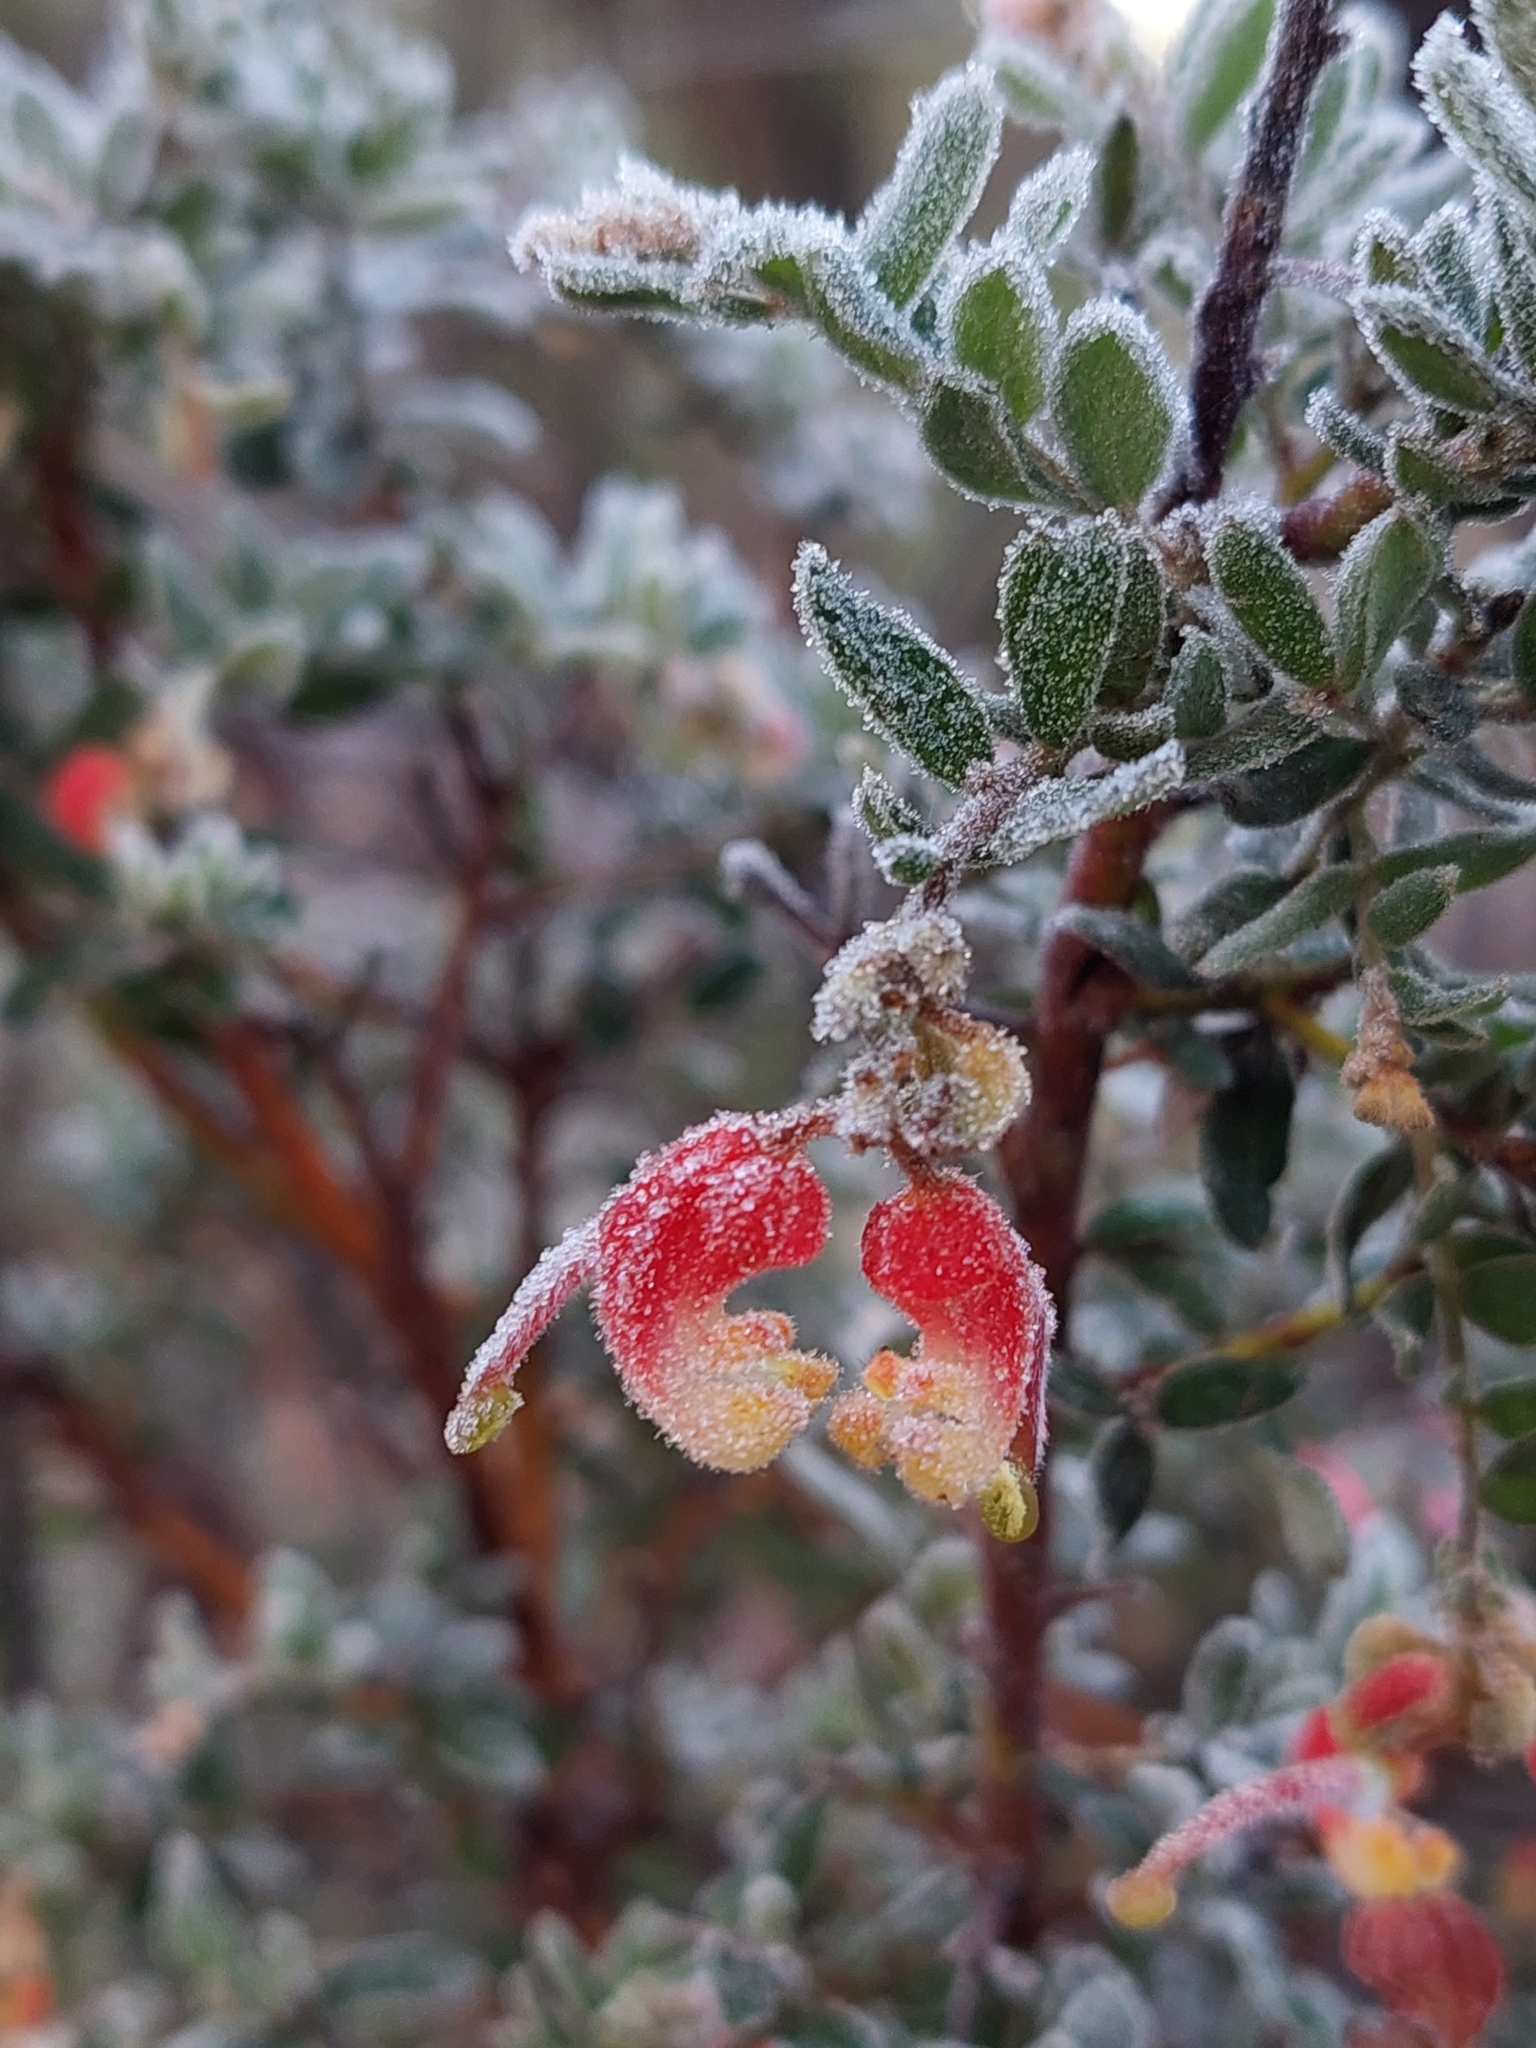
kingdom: Plantae
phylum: Tracheophyta
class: Magnoliopsida
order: Proteales
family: Proteaceae
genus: Grevillea
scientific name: Grevillea alpina
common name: Catclaws grevillea
